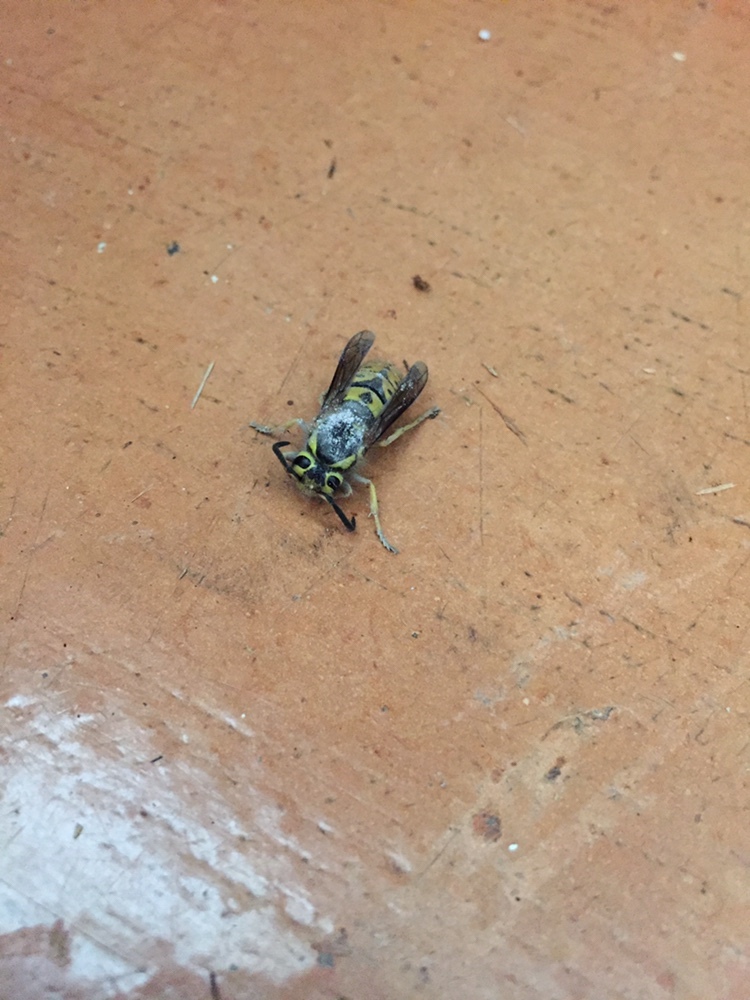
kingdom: Animalia
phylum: Arthropoda
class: Insecta
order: Hymenoptera
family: Vespidae
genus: Vespula
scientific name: Vespula pensylvanica
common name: Western yellowjacket
